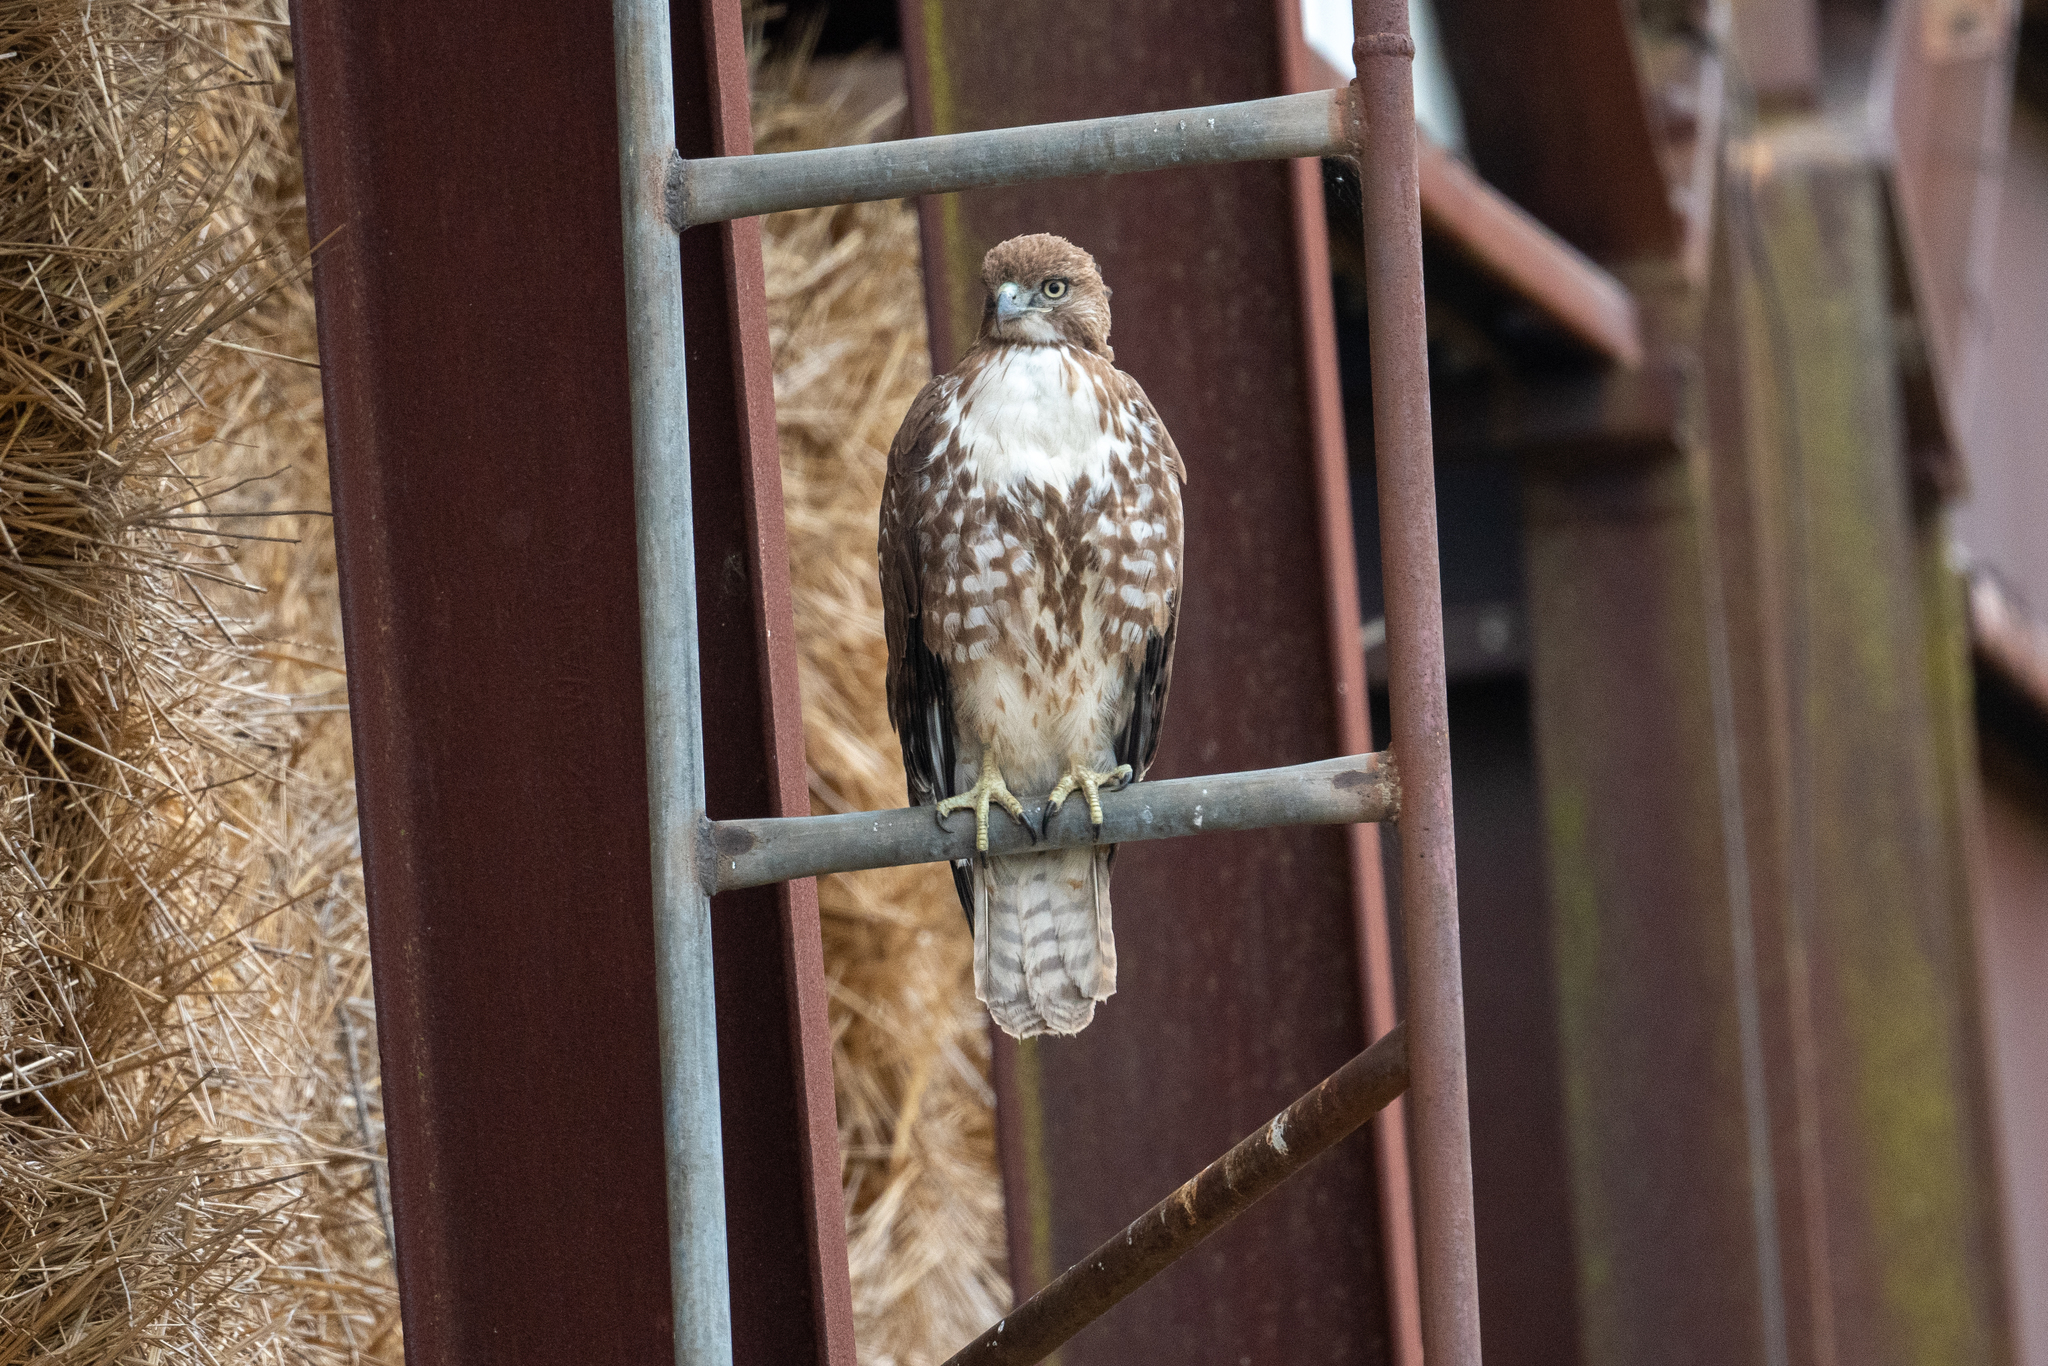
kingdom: Animalia
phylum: Chordata
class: Aves
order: Accipitriformes
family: Accipitridae
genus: Buteo
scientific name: Buteo jamaicensis
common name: Red-tailed hawk
